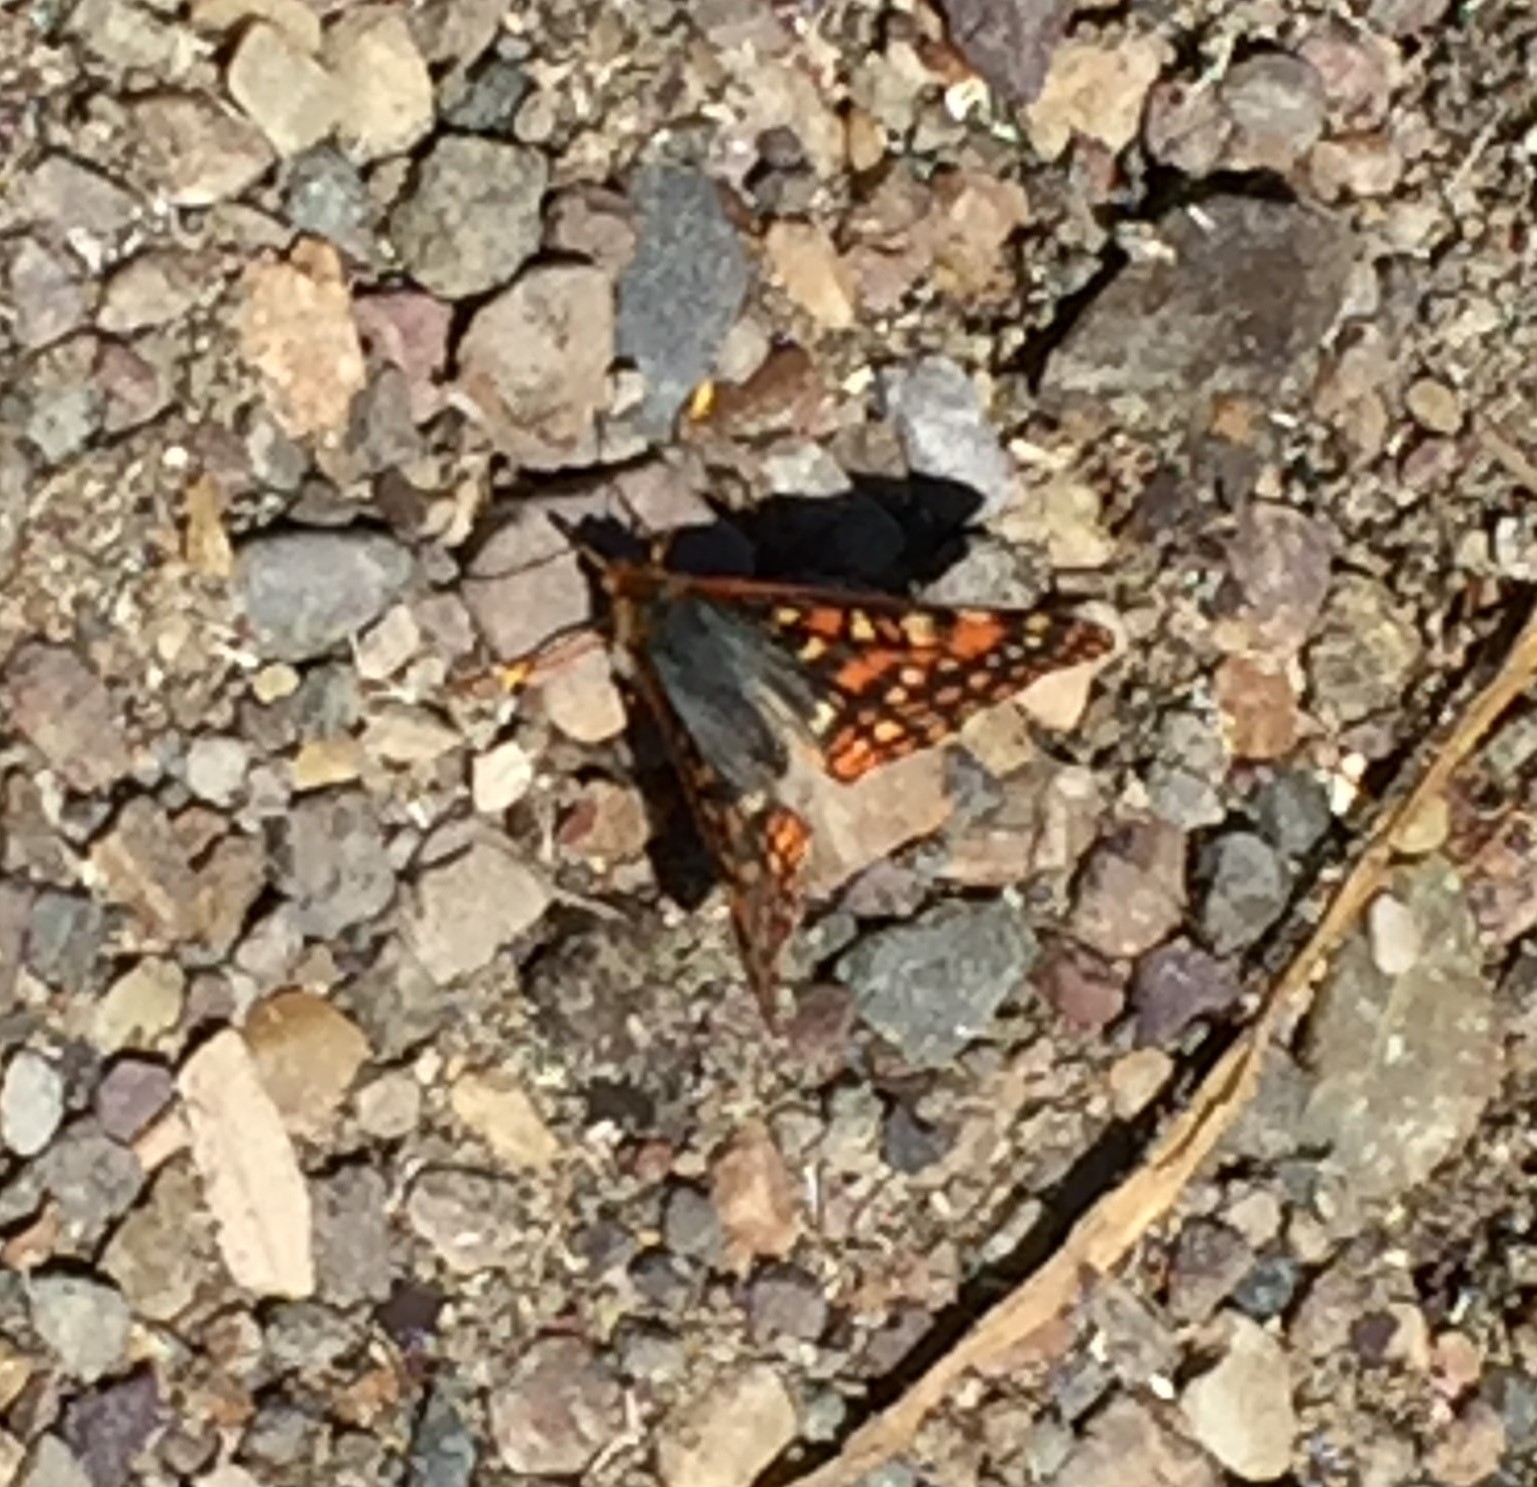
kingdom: Animalia
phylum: Arthropoda
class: Insecta
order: Lepidoptera
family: Nymphalidae
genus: Occidryas
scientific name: Occidryas anicia
